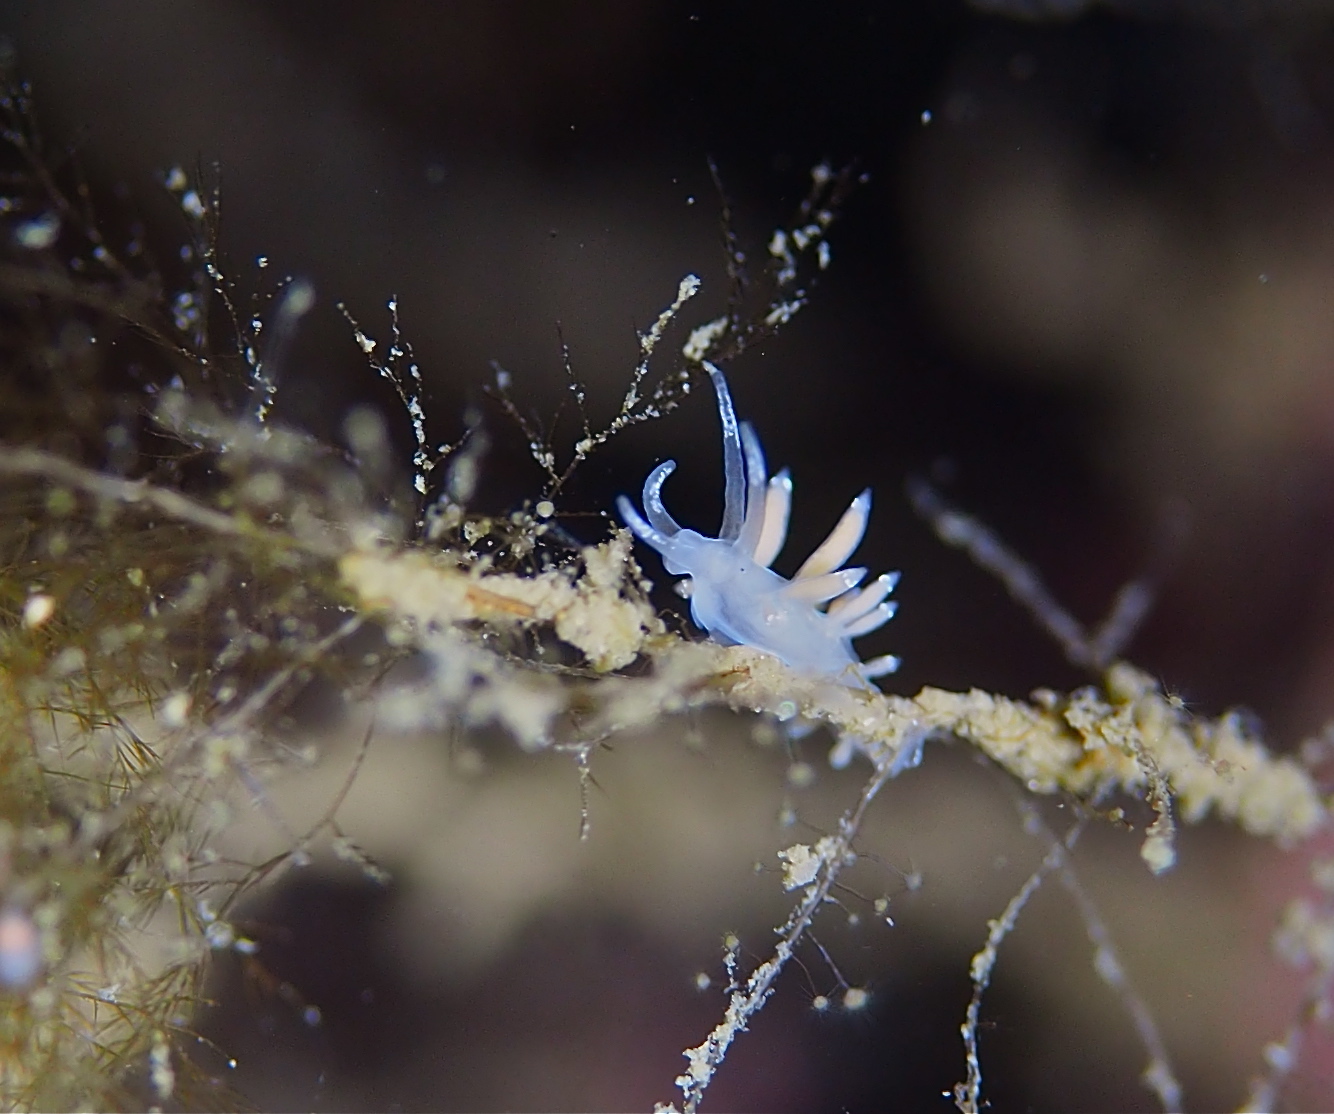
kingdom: Animalia
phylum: Mollusca
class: Gastropoda
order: Nudibranchia
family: Coryphellidae
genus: Coryphella
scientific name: Coryphella gracilis
